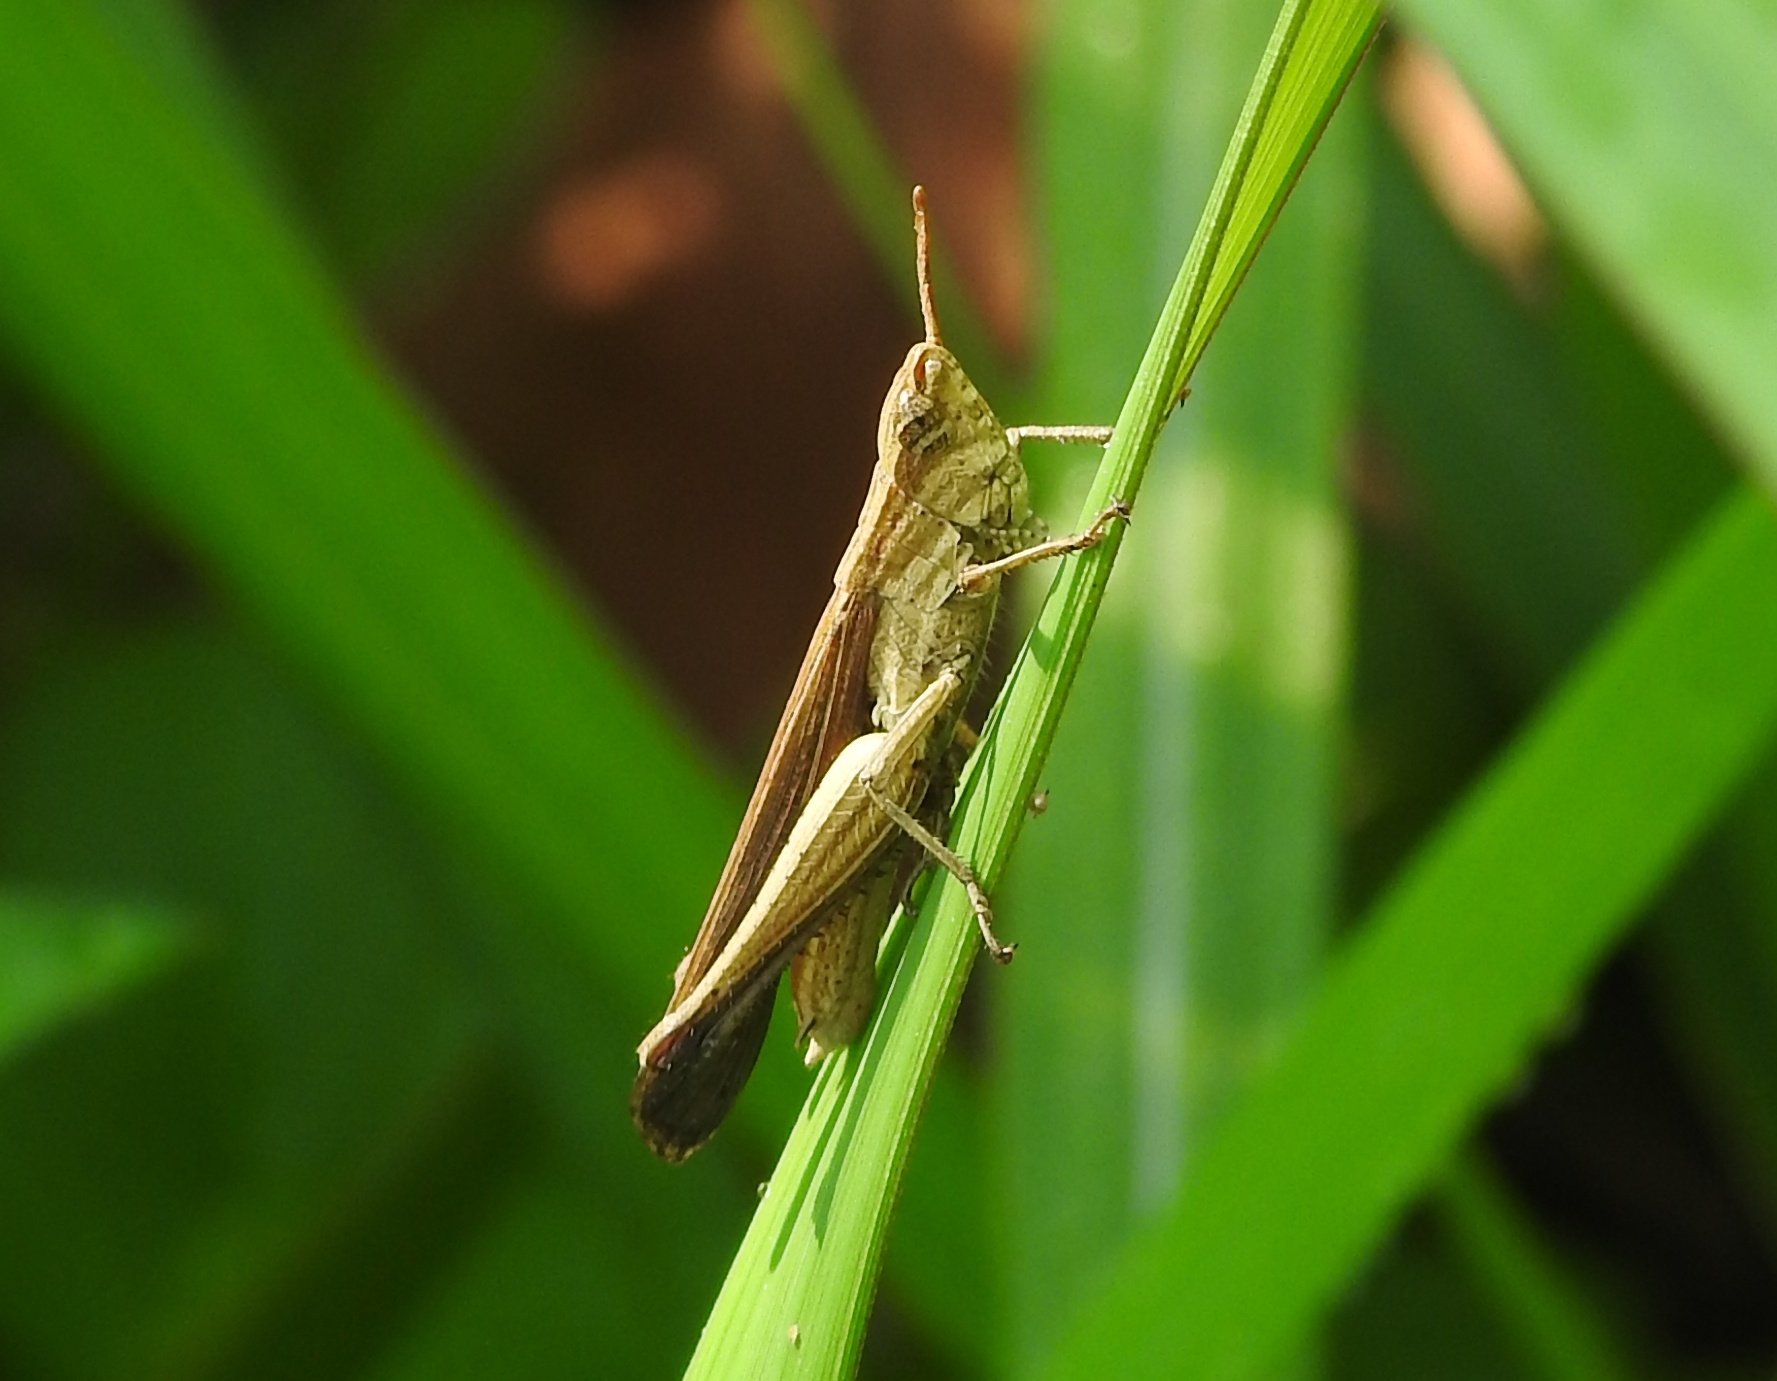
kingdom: Animalia
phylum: Arthropoda
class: Insecta
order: Orthoptera
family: Acrididae
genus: Phlaeoba
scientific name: Phlaeoba infumata
